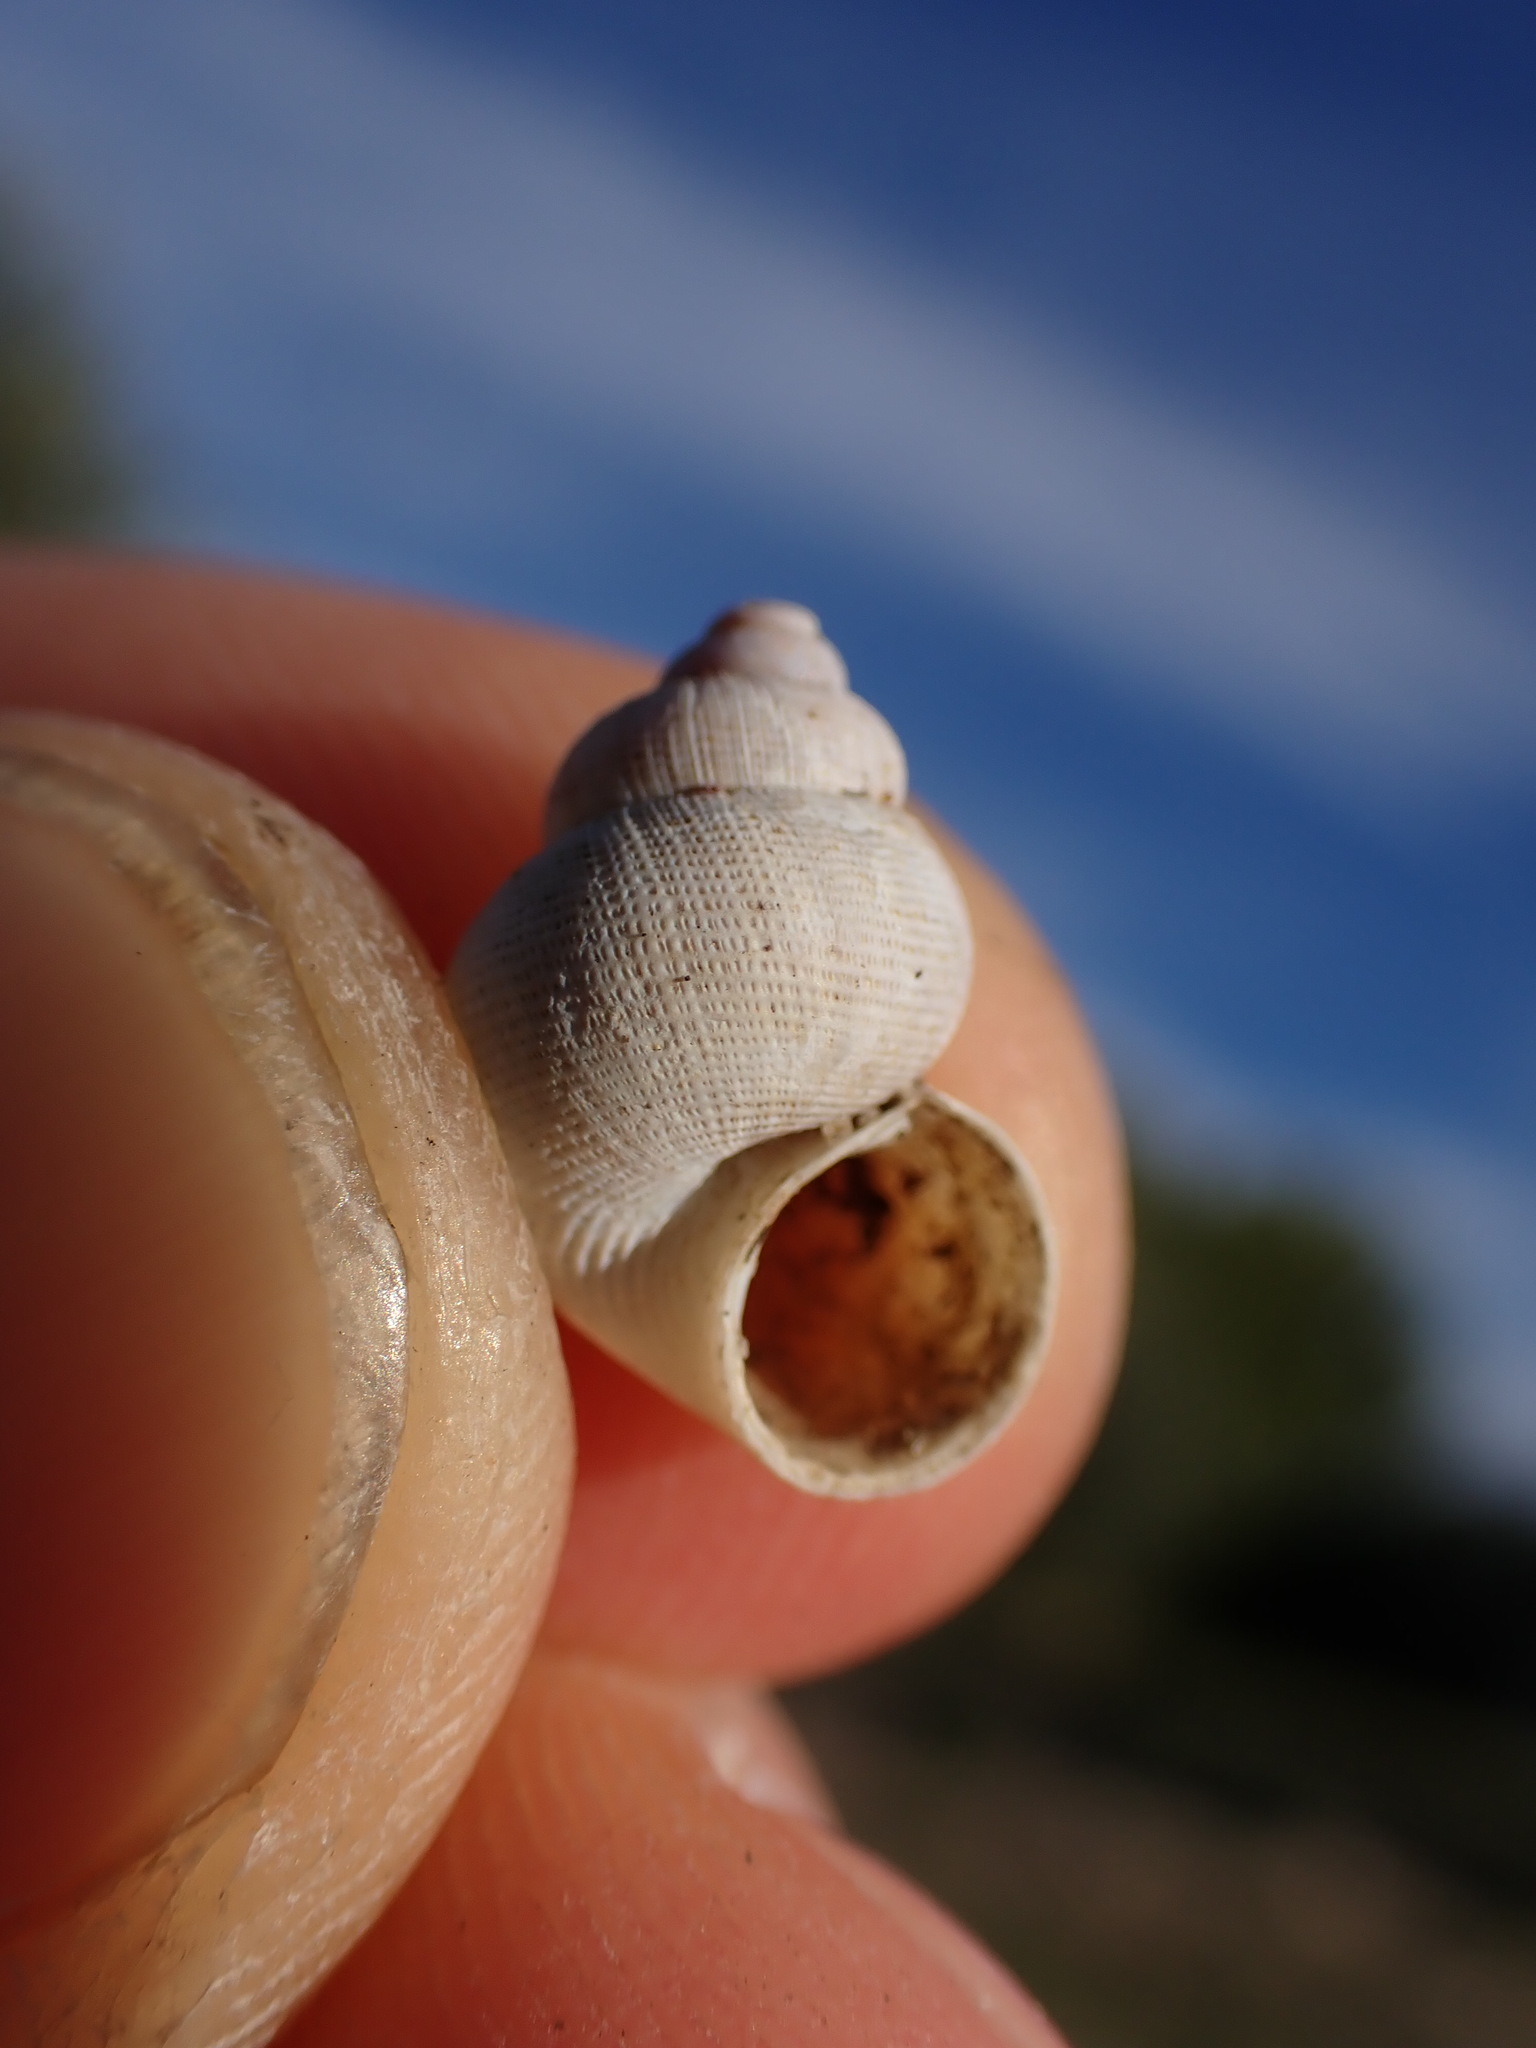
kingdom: Animalia
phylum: Mollusca
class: Gastropoda
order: Littorinimorpha
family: Pomatiidae
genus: Pomatias
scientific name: Pomatias elegans
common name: Red-mouthed snail
